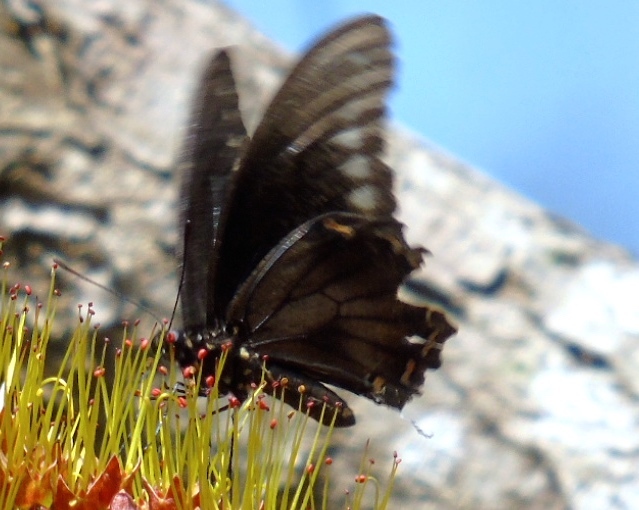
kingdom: Animalia
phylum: Arthropoda
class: Insecta
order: Lepidoptera
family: Papilionidae
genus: Battus
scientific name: Battus polydamas
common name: Polydamas swallowtail
